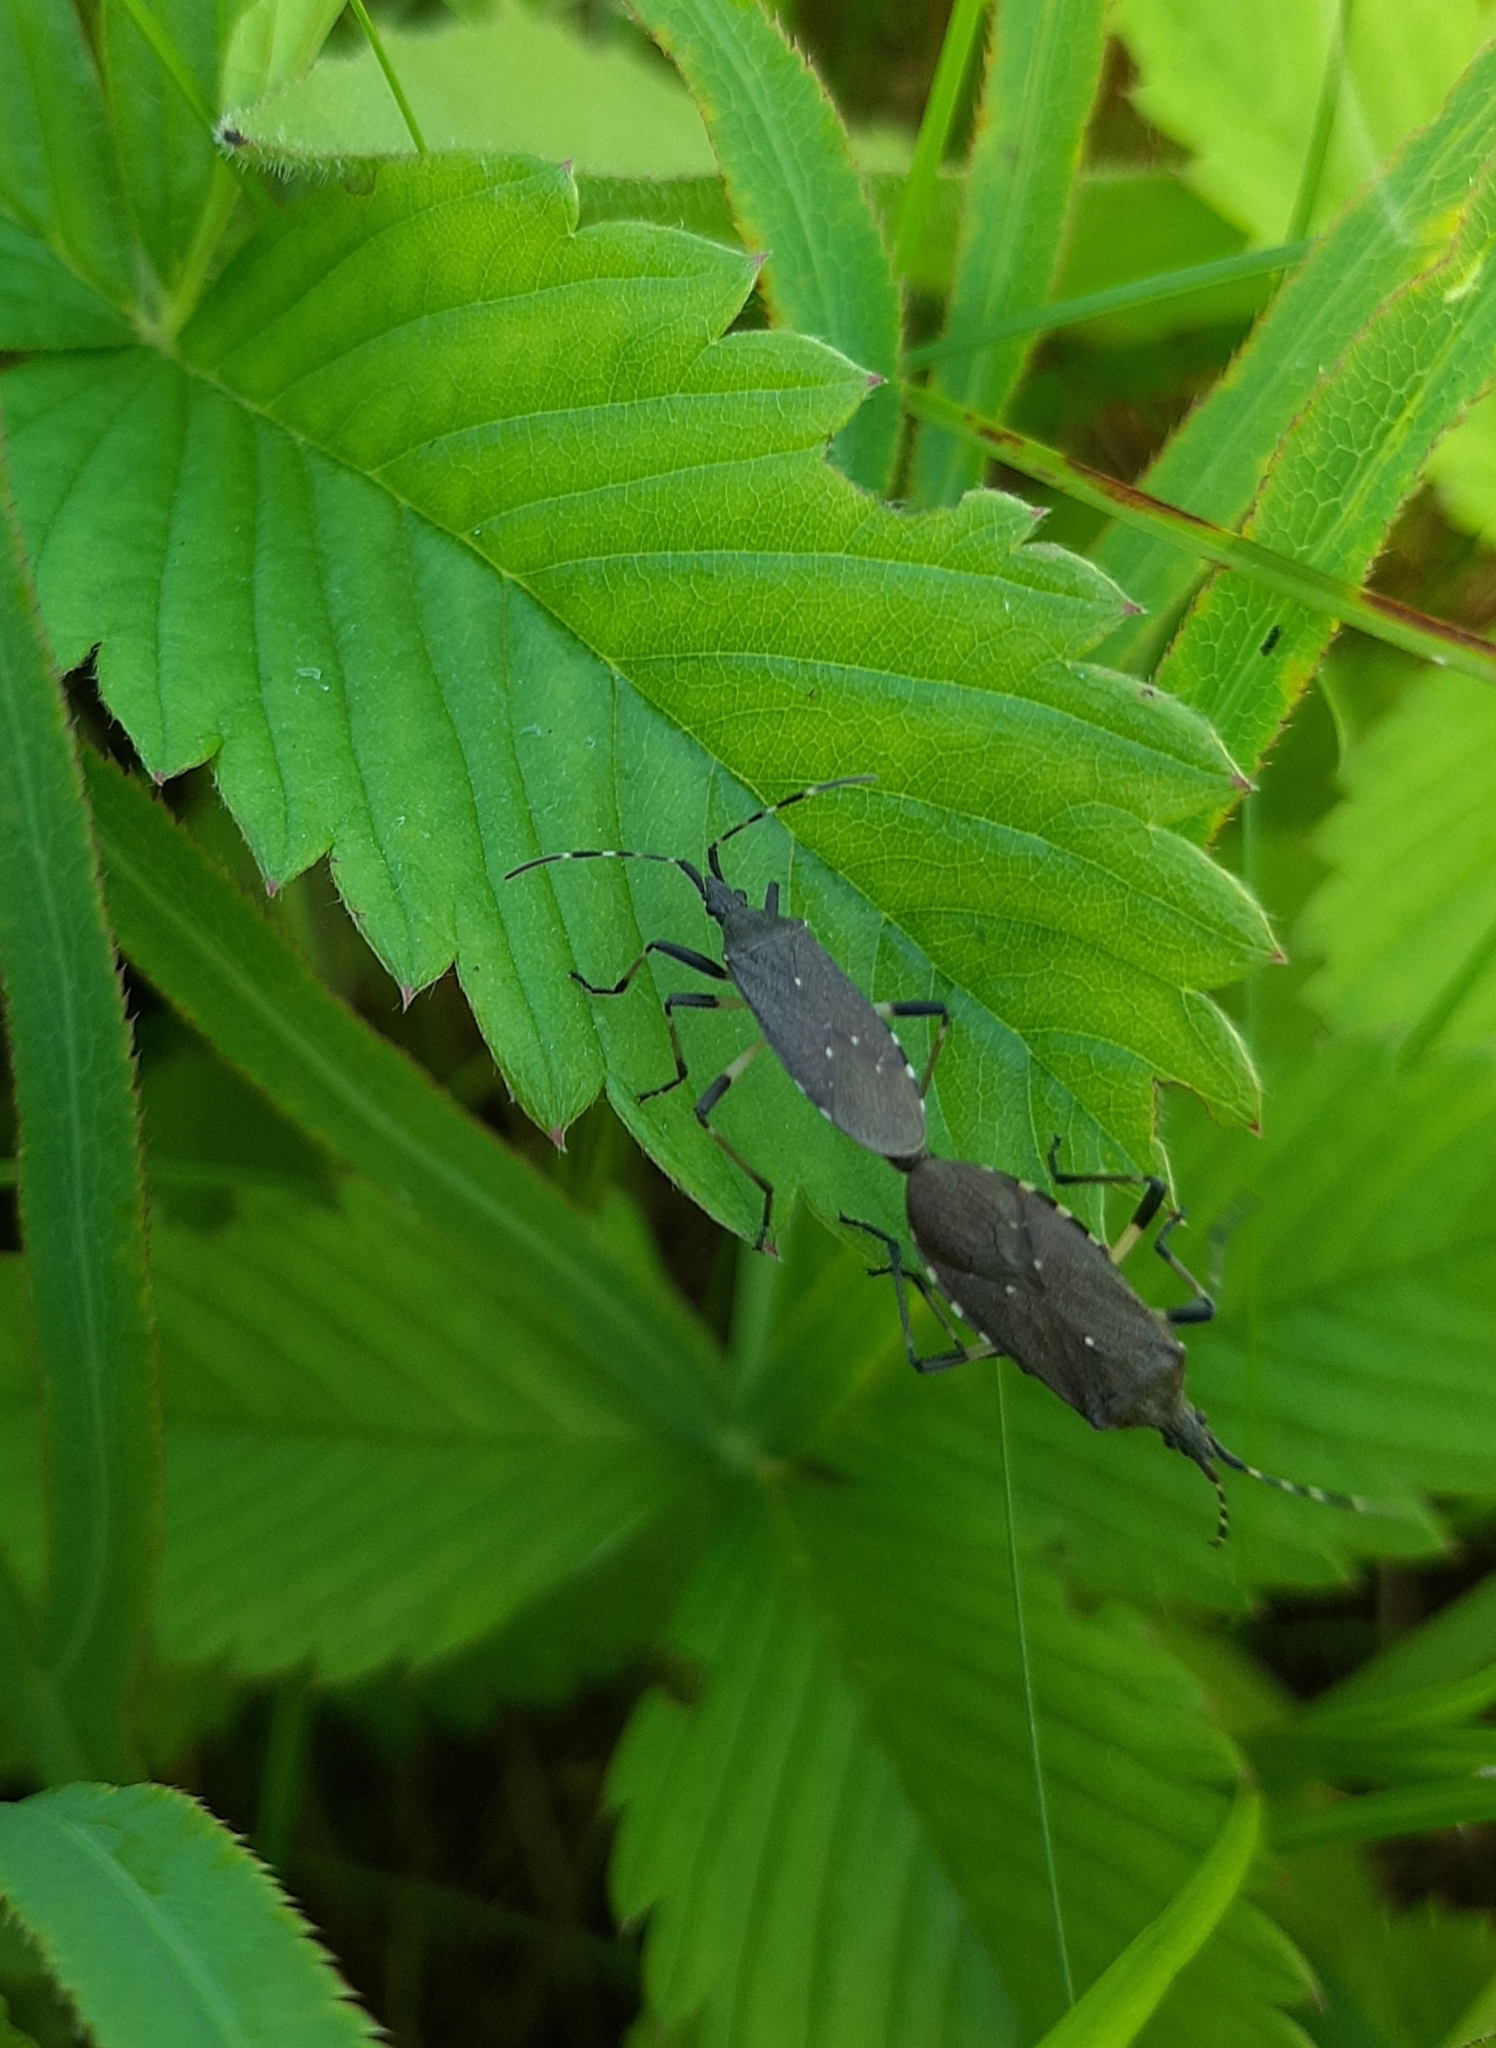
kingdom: Animalia
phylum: Arthropoda
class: Insecta
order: Hemiptera
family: Stenocephalidae
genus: Dicranocephalus
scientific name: Dicranocephalus medius
